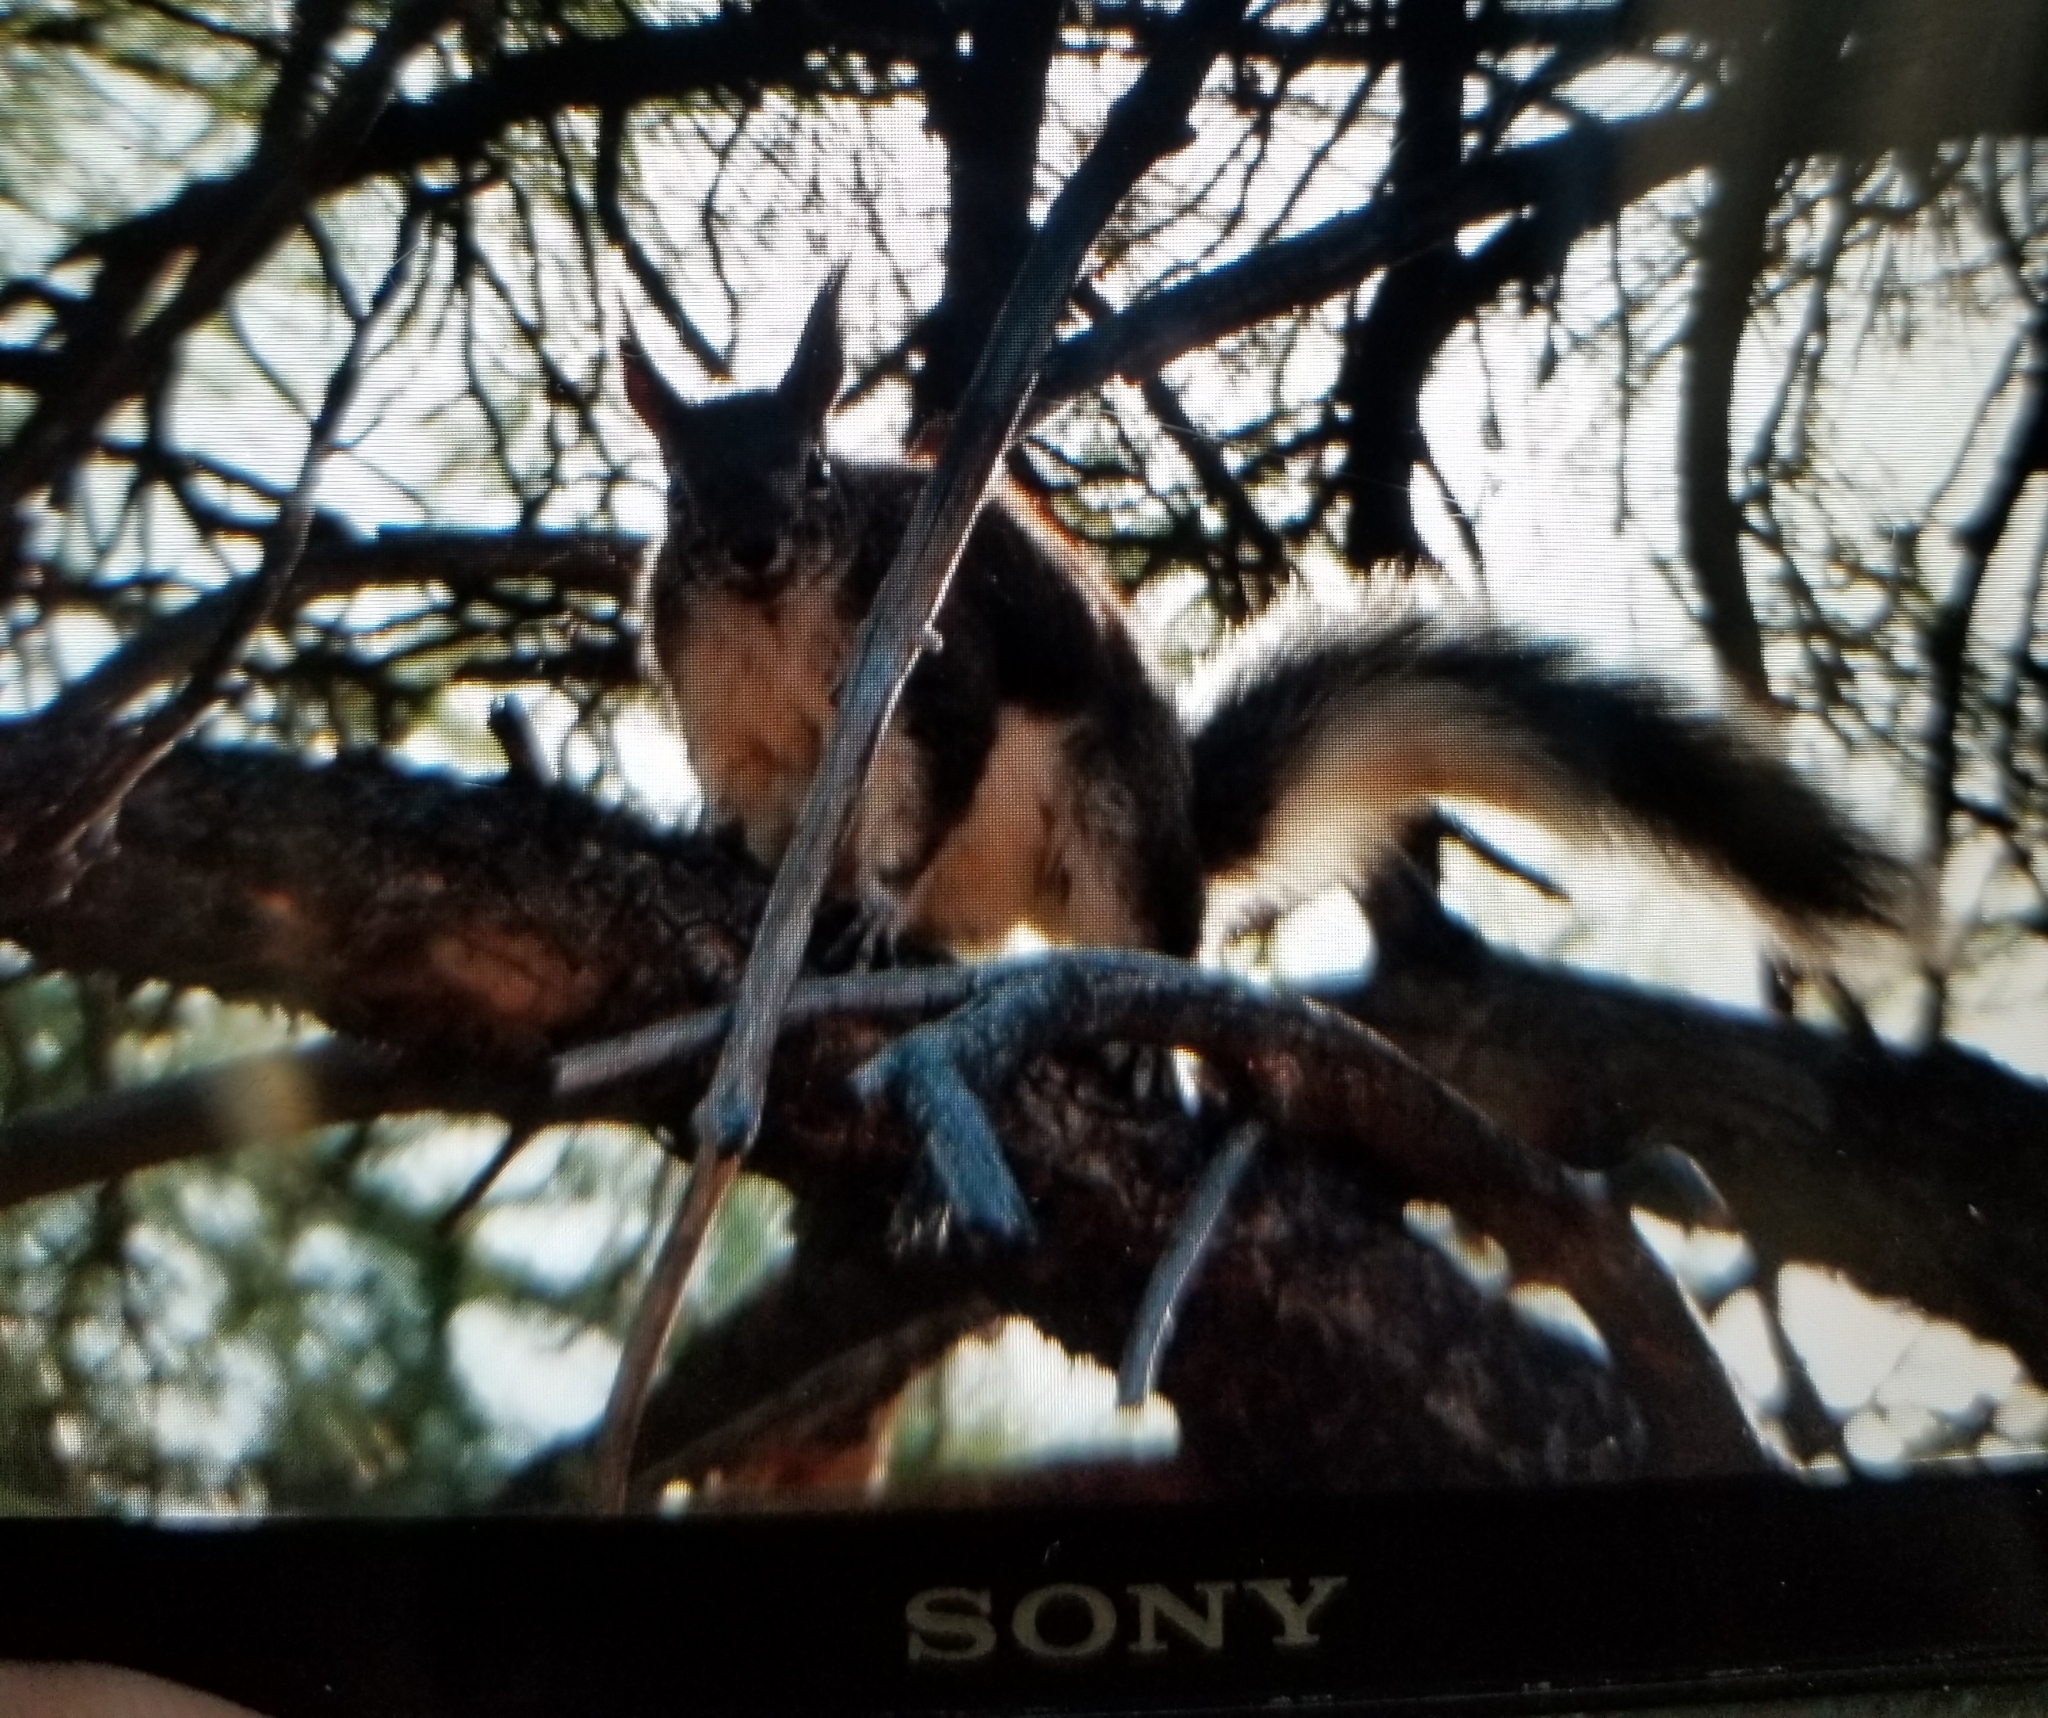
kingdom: Animalia
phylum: Chordata
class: Mammalia
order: Rodentia
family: Sciuridae
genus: Sciurus
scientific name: Sciurus aberti
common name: Abert's squirrel
